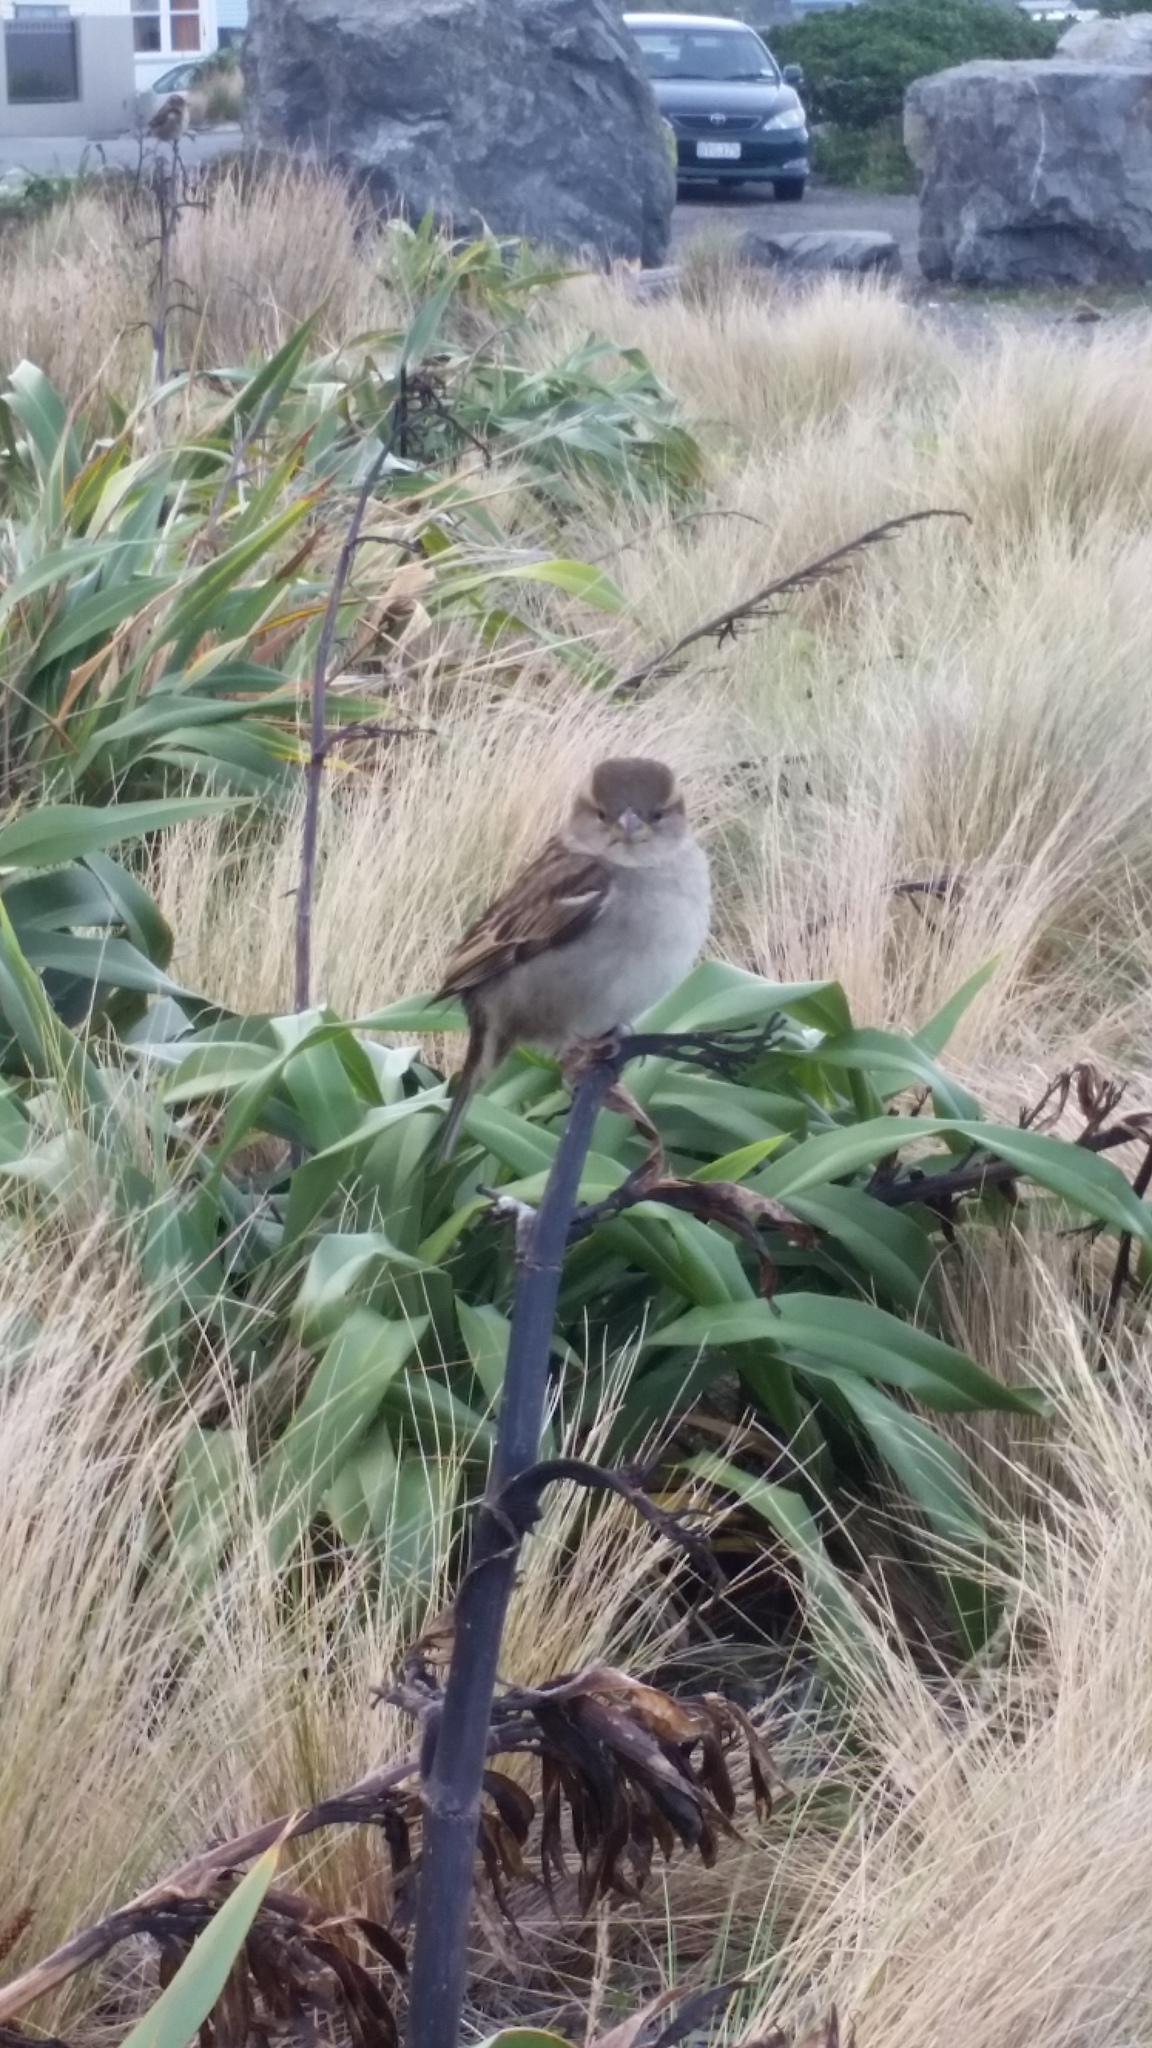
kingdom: Animalia
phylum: Chordata
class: Aves
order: Passeriformes
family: Passeridae
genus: Passer
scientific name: Passer domesticus
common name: House sparrow
